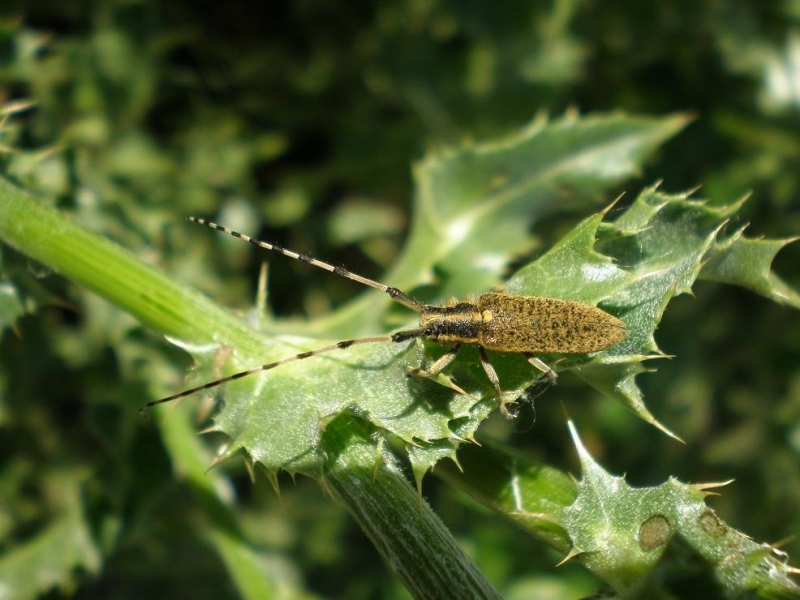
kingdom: Animalia
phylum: Arthropoda
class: Insecta
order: Coleoptera
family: Cerambycidae
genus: Agapanthia
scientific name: Agapanthia dahlii
